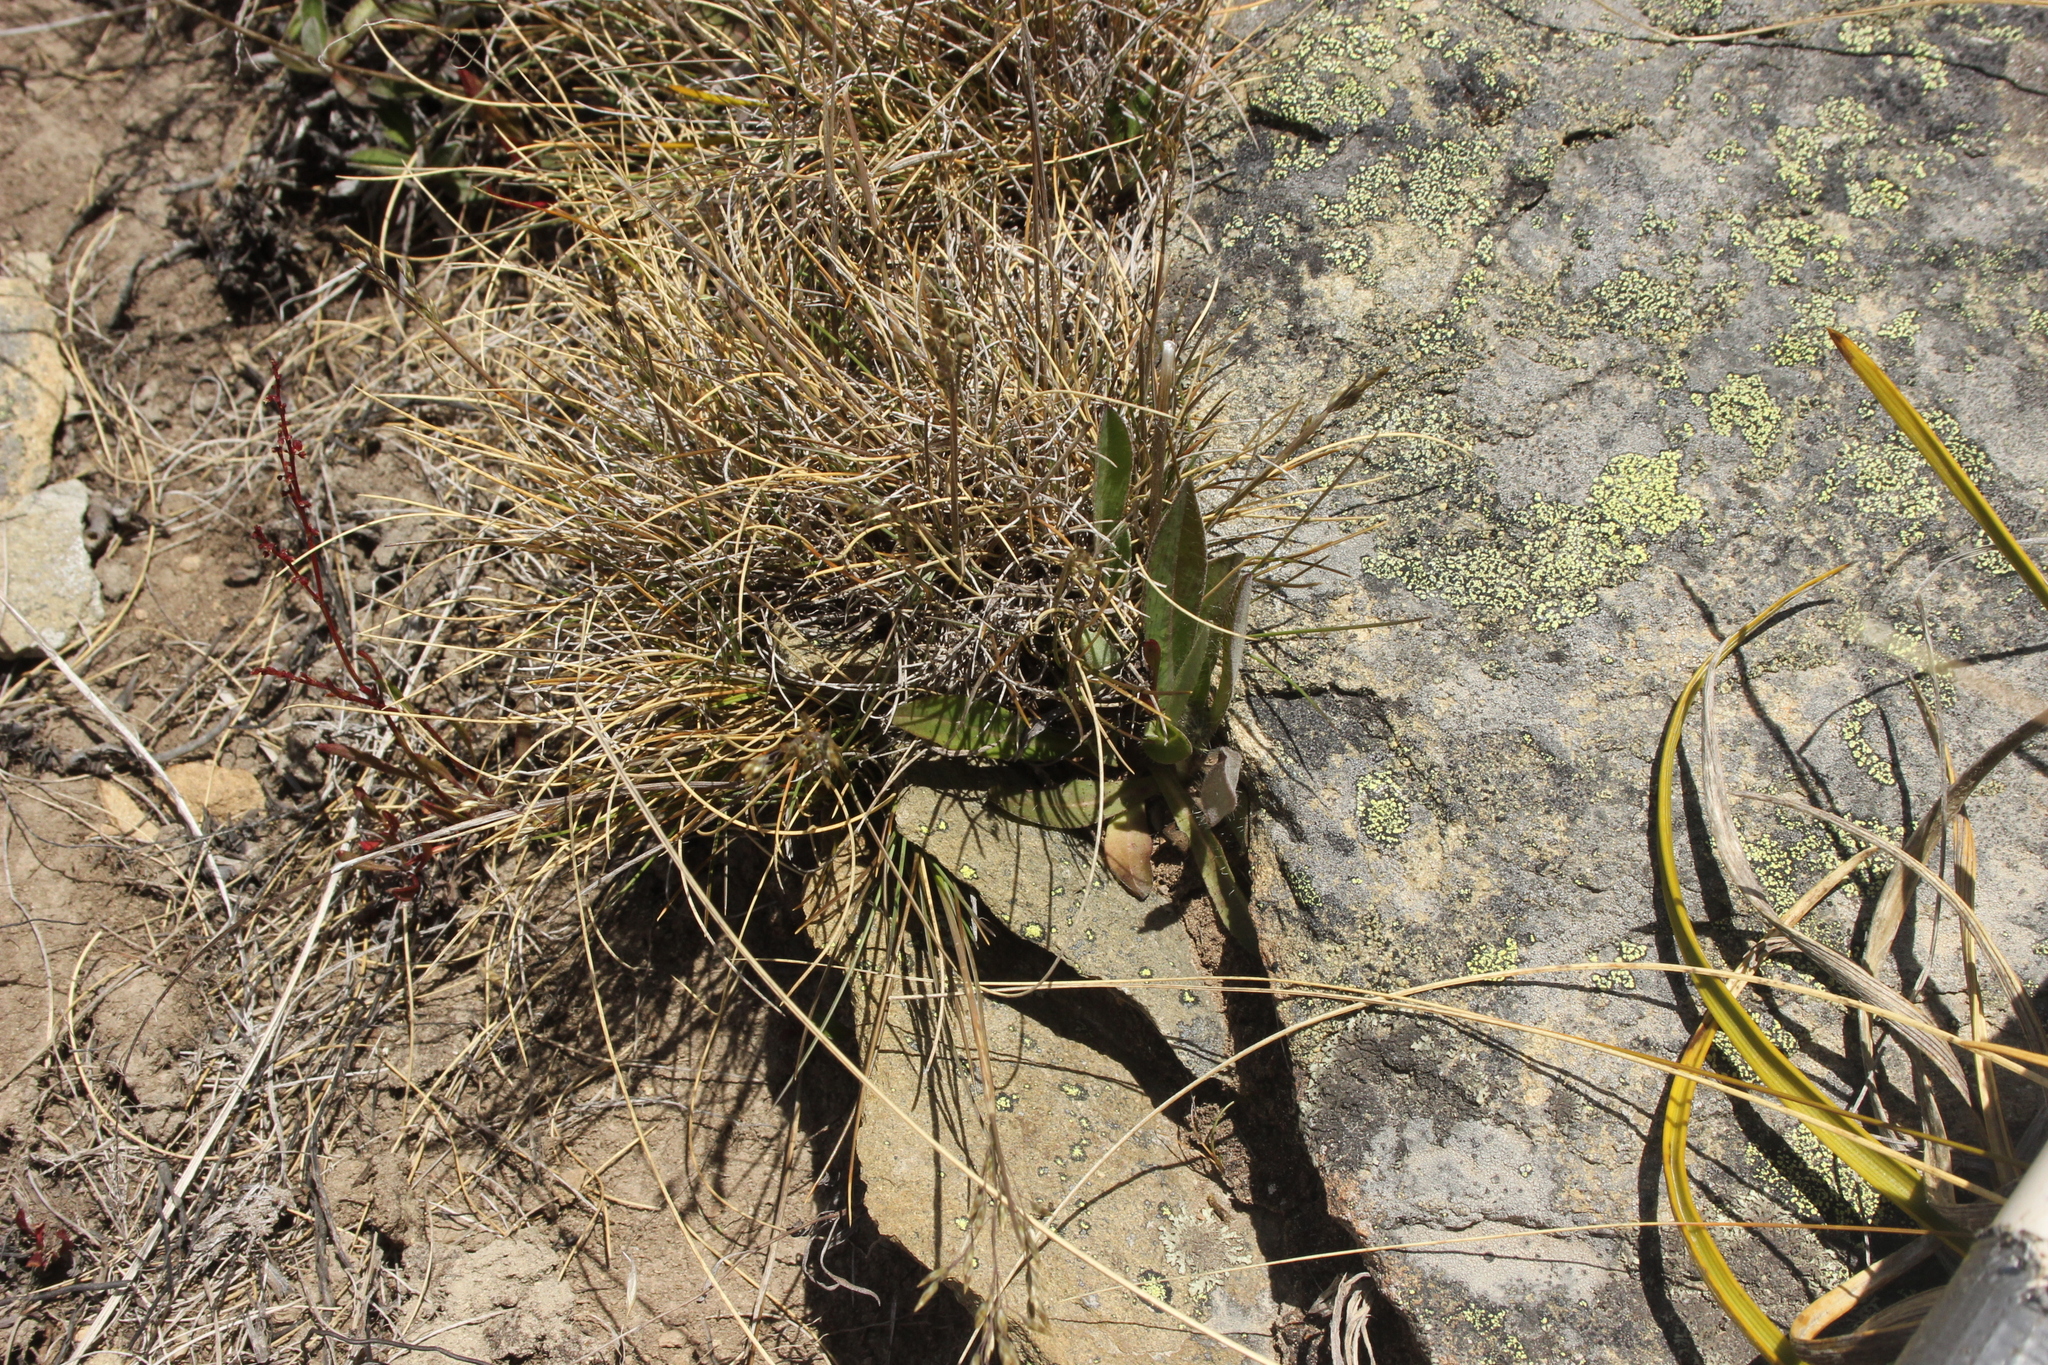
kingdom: Plantae
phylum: Tracheophyta
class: Liliopsida
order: Poales
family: Poaceae
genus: Poa
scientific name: Poa colensoi
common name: Blue tussock
